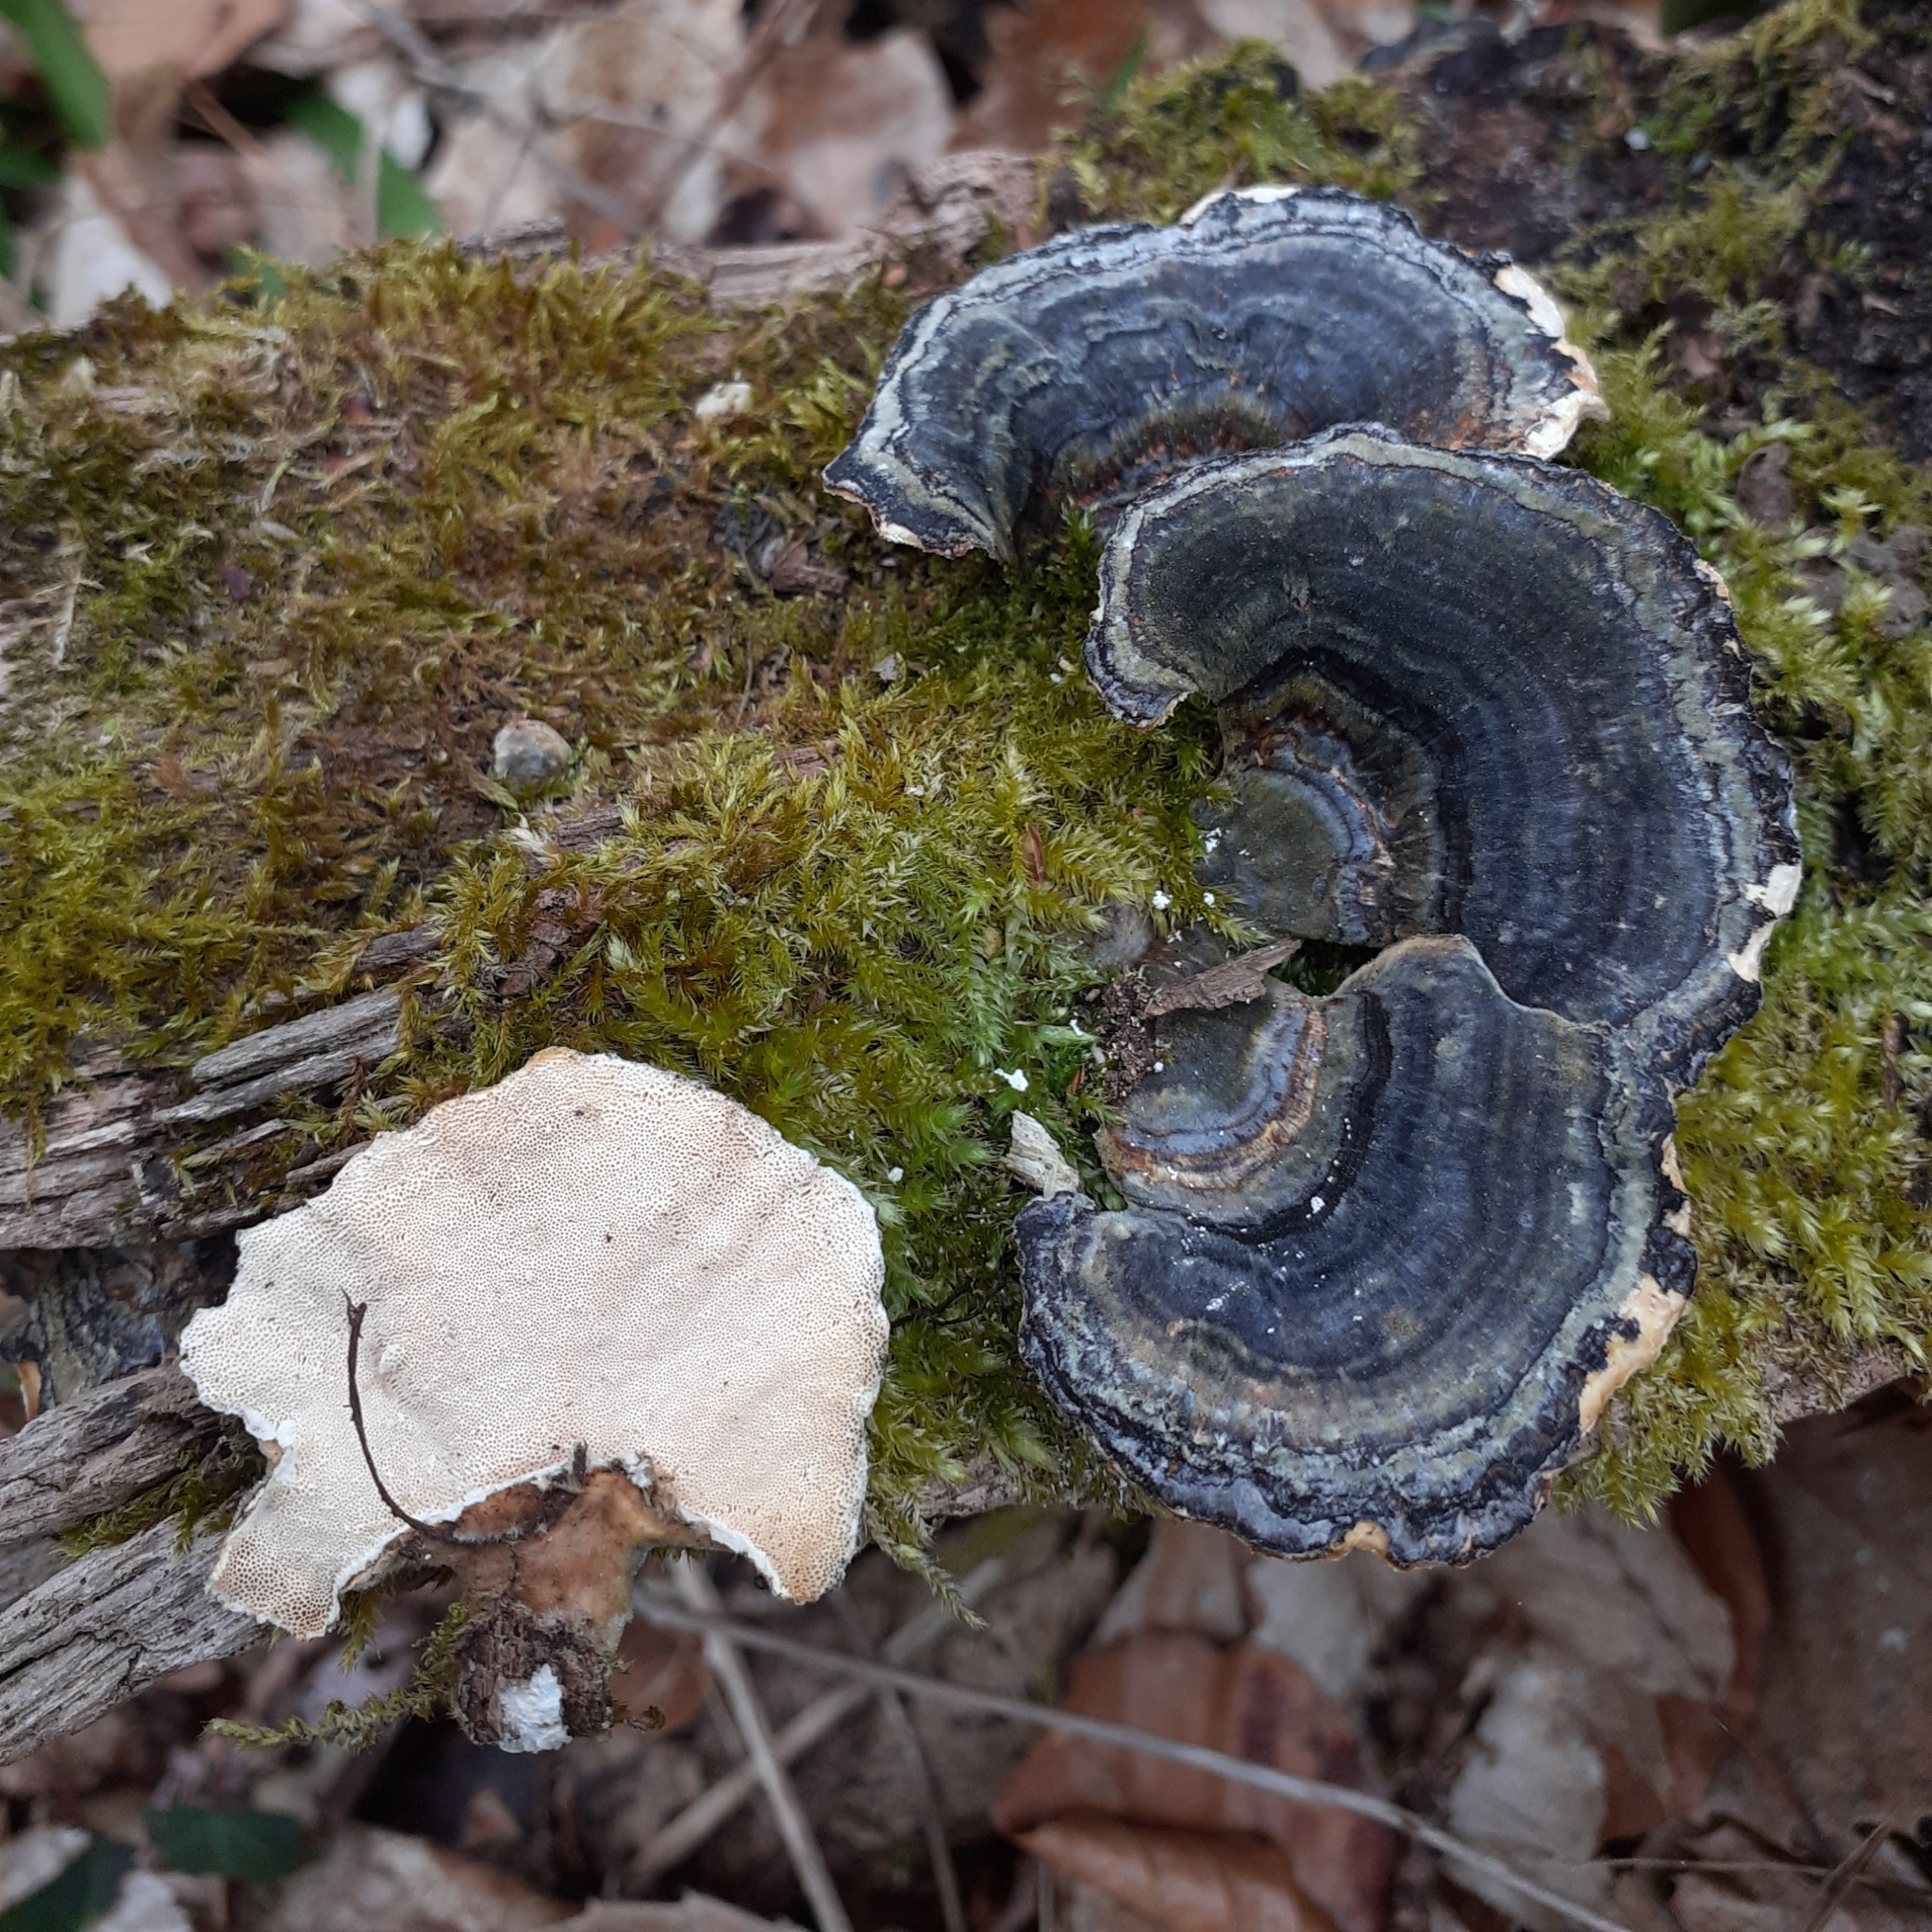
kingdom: Fungi
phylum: Basidiomycota
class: Agaricomycetes
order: Polyporales
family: Polyporaceae
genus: Trametes
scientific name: Trametes versicolor
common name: Turkeytail
